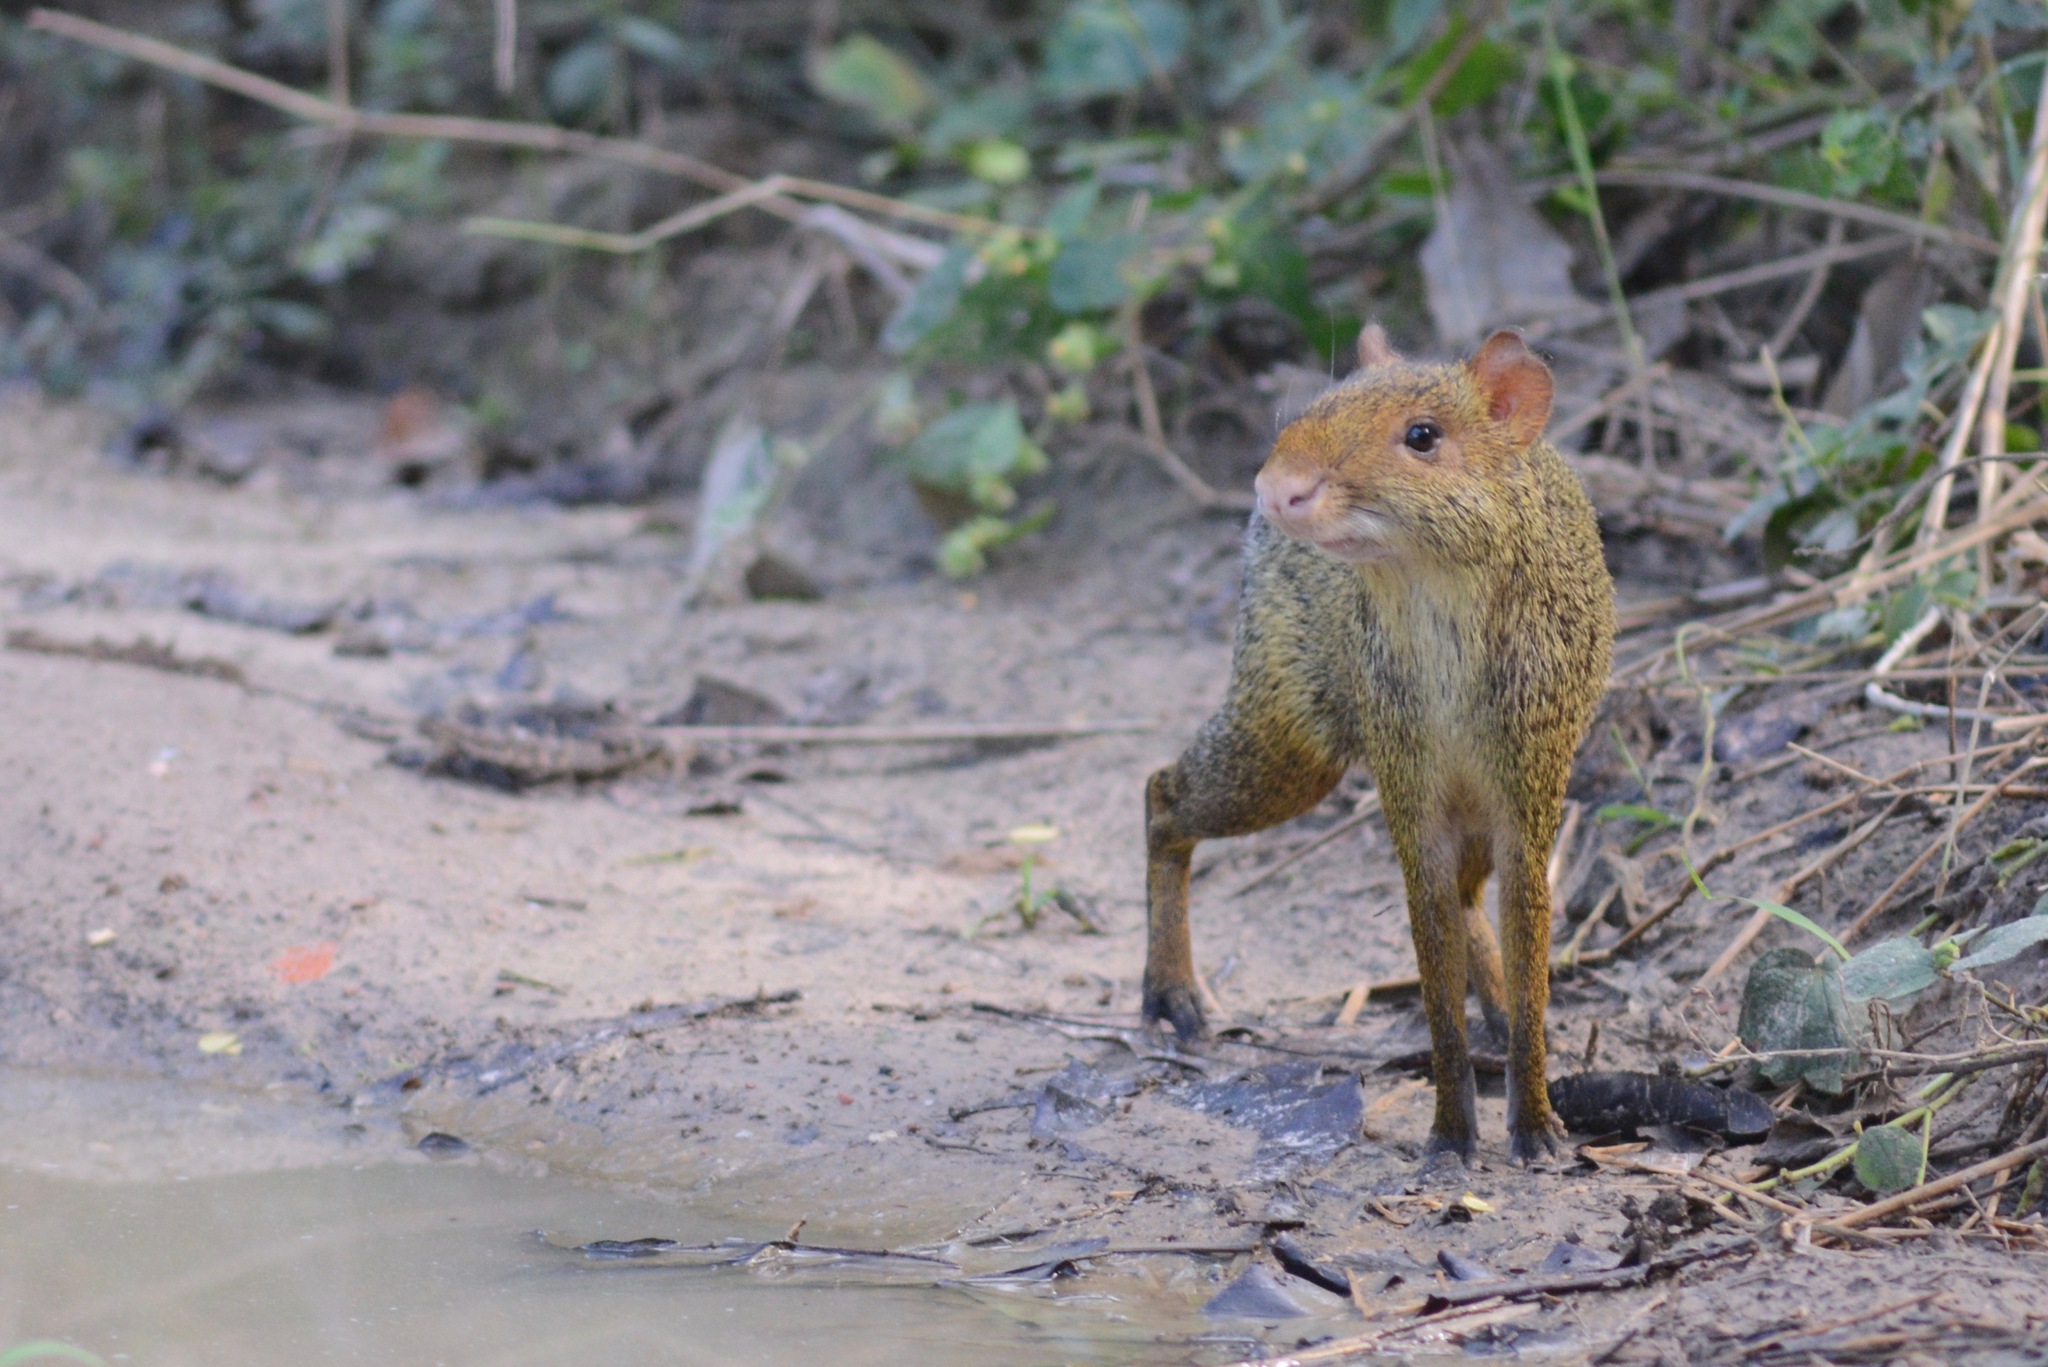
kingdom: Animalia
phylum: Chordata
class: Mammalia
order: Rodentia
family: Dasyproctidae
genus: Dasyprocta
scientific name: Dasyprocta azarae
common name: Azara's agouti
